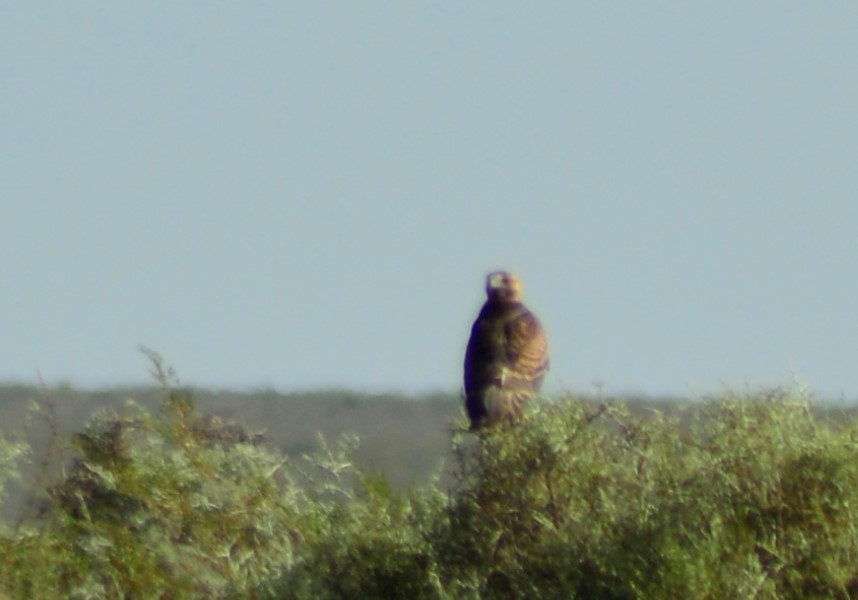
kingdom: Animalia
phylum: Chordata
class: Aves
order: Accipitriformes
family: Accipitridae
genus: Buteo
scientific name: Buteo polyosoma
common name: Variable hawk
